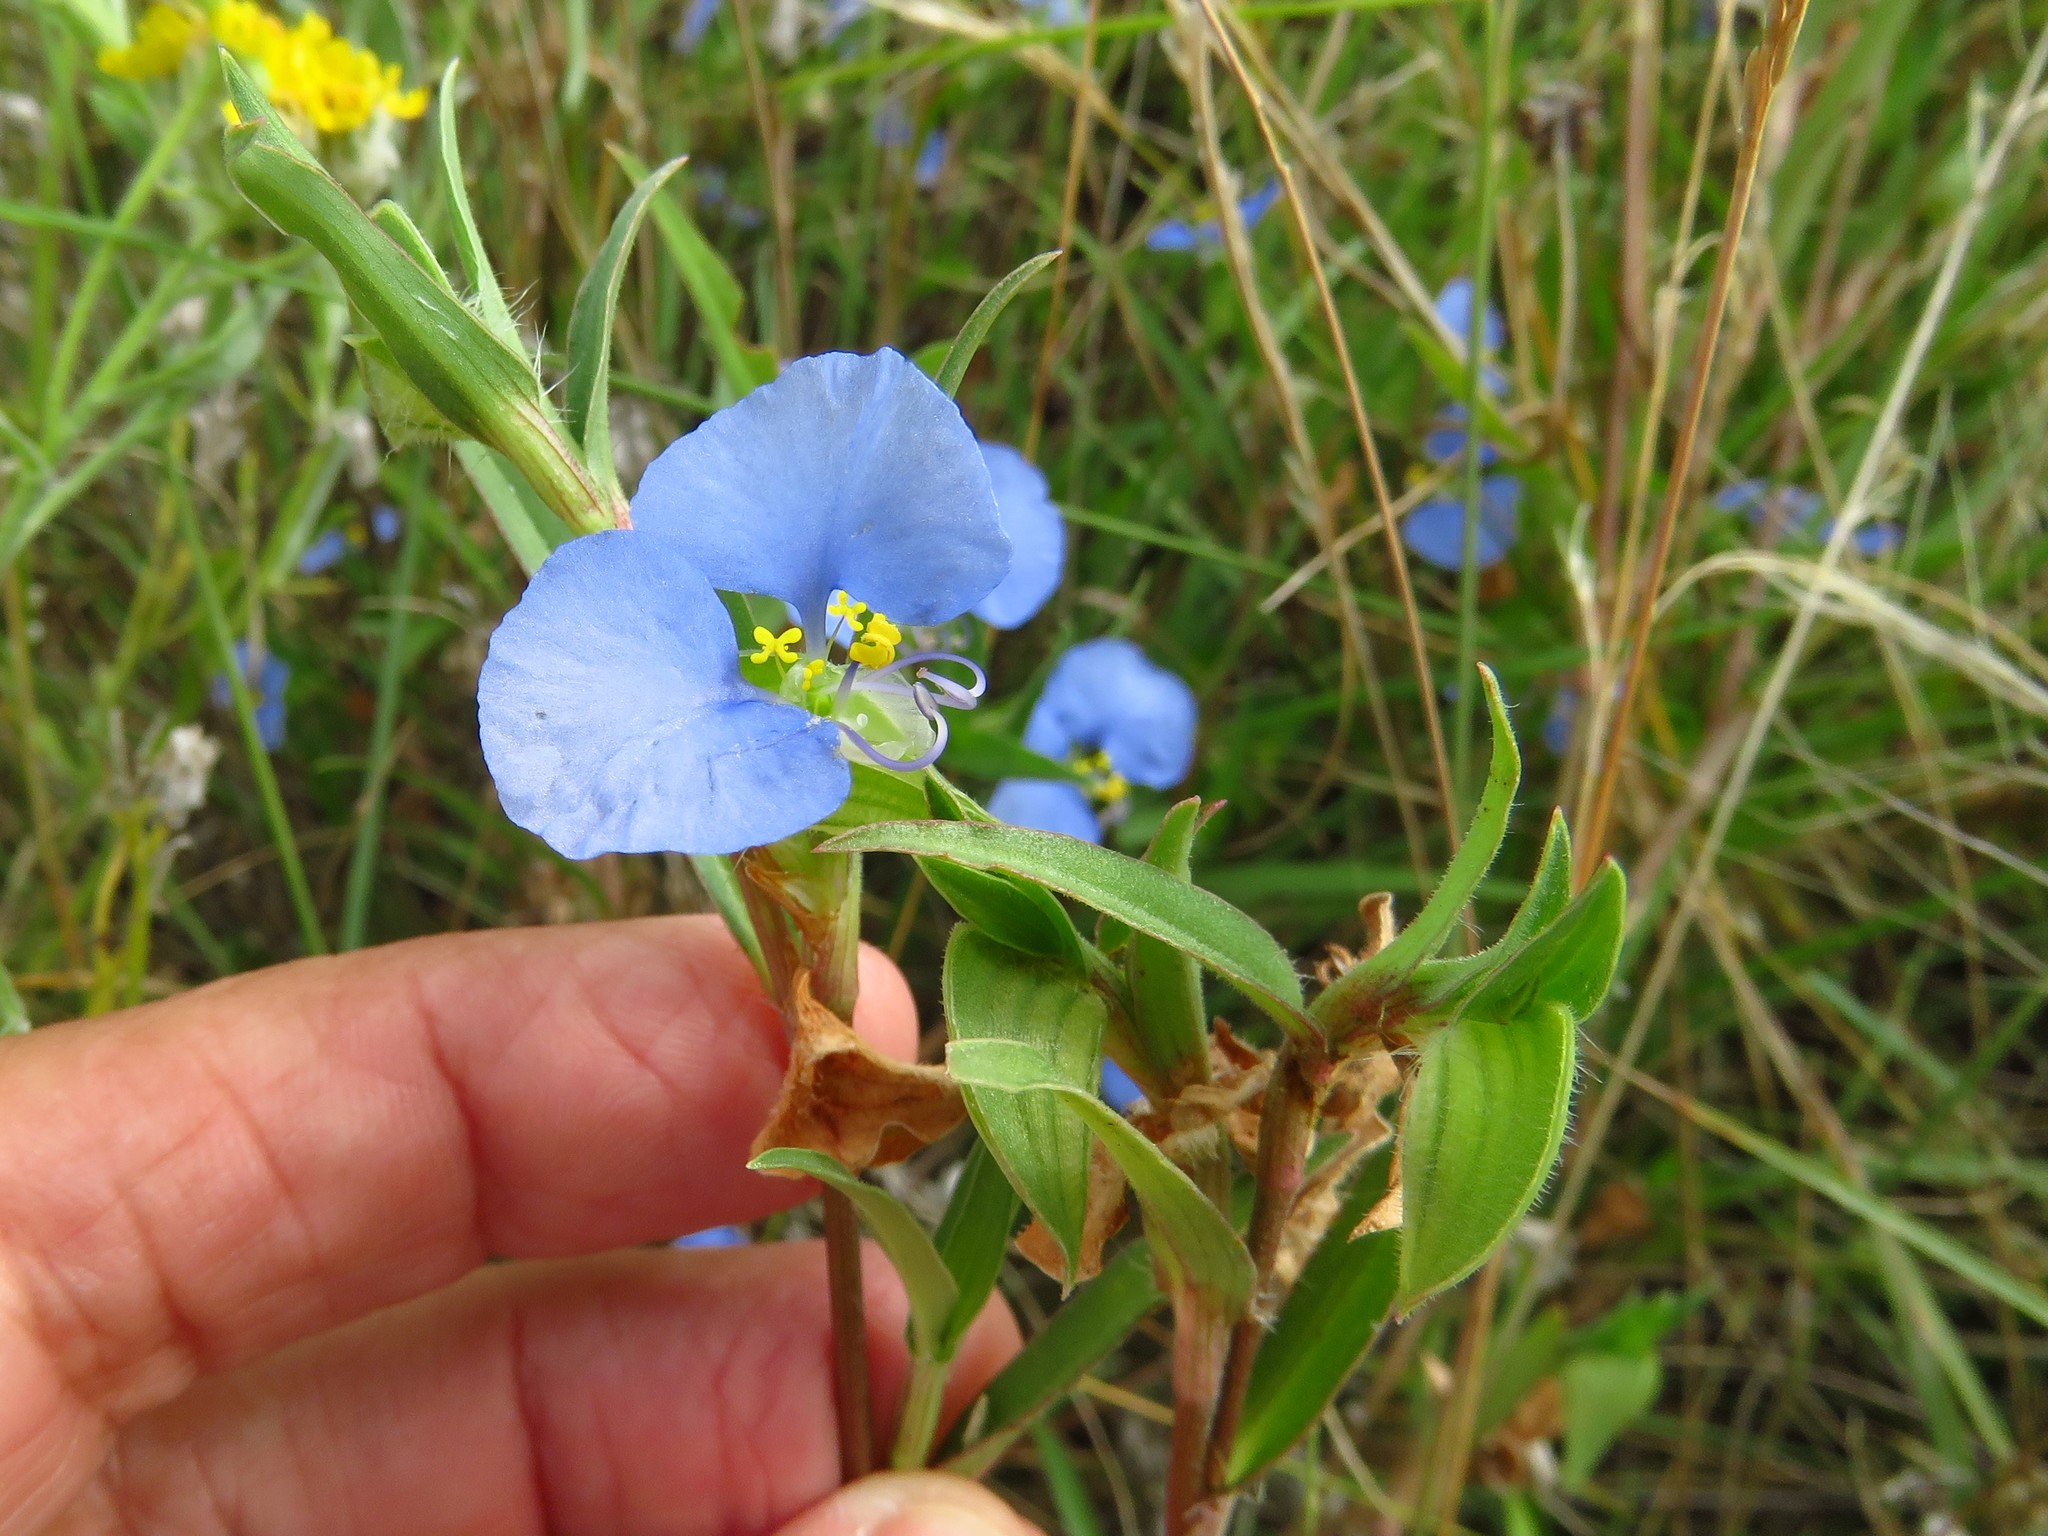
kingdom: Plantae
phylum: Tracheophyta
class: Liliopsida
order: Commelinales
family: Commelinaceae
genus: Commelina
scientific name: Commelina erecta
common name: Blousel blommetjie
